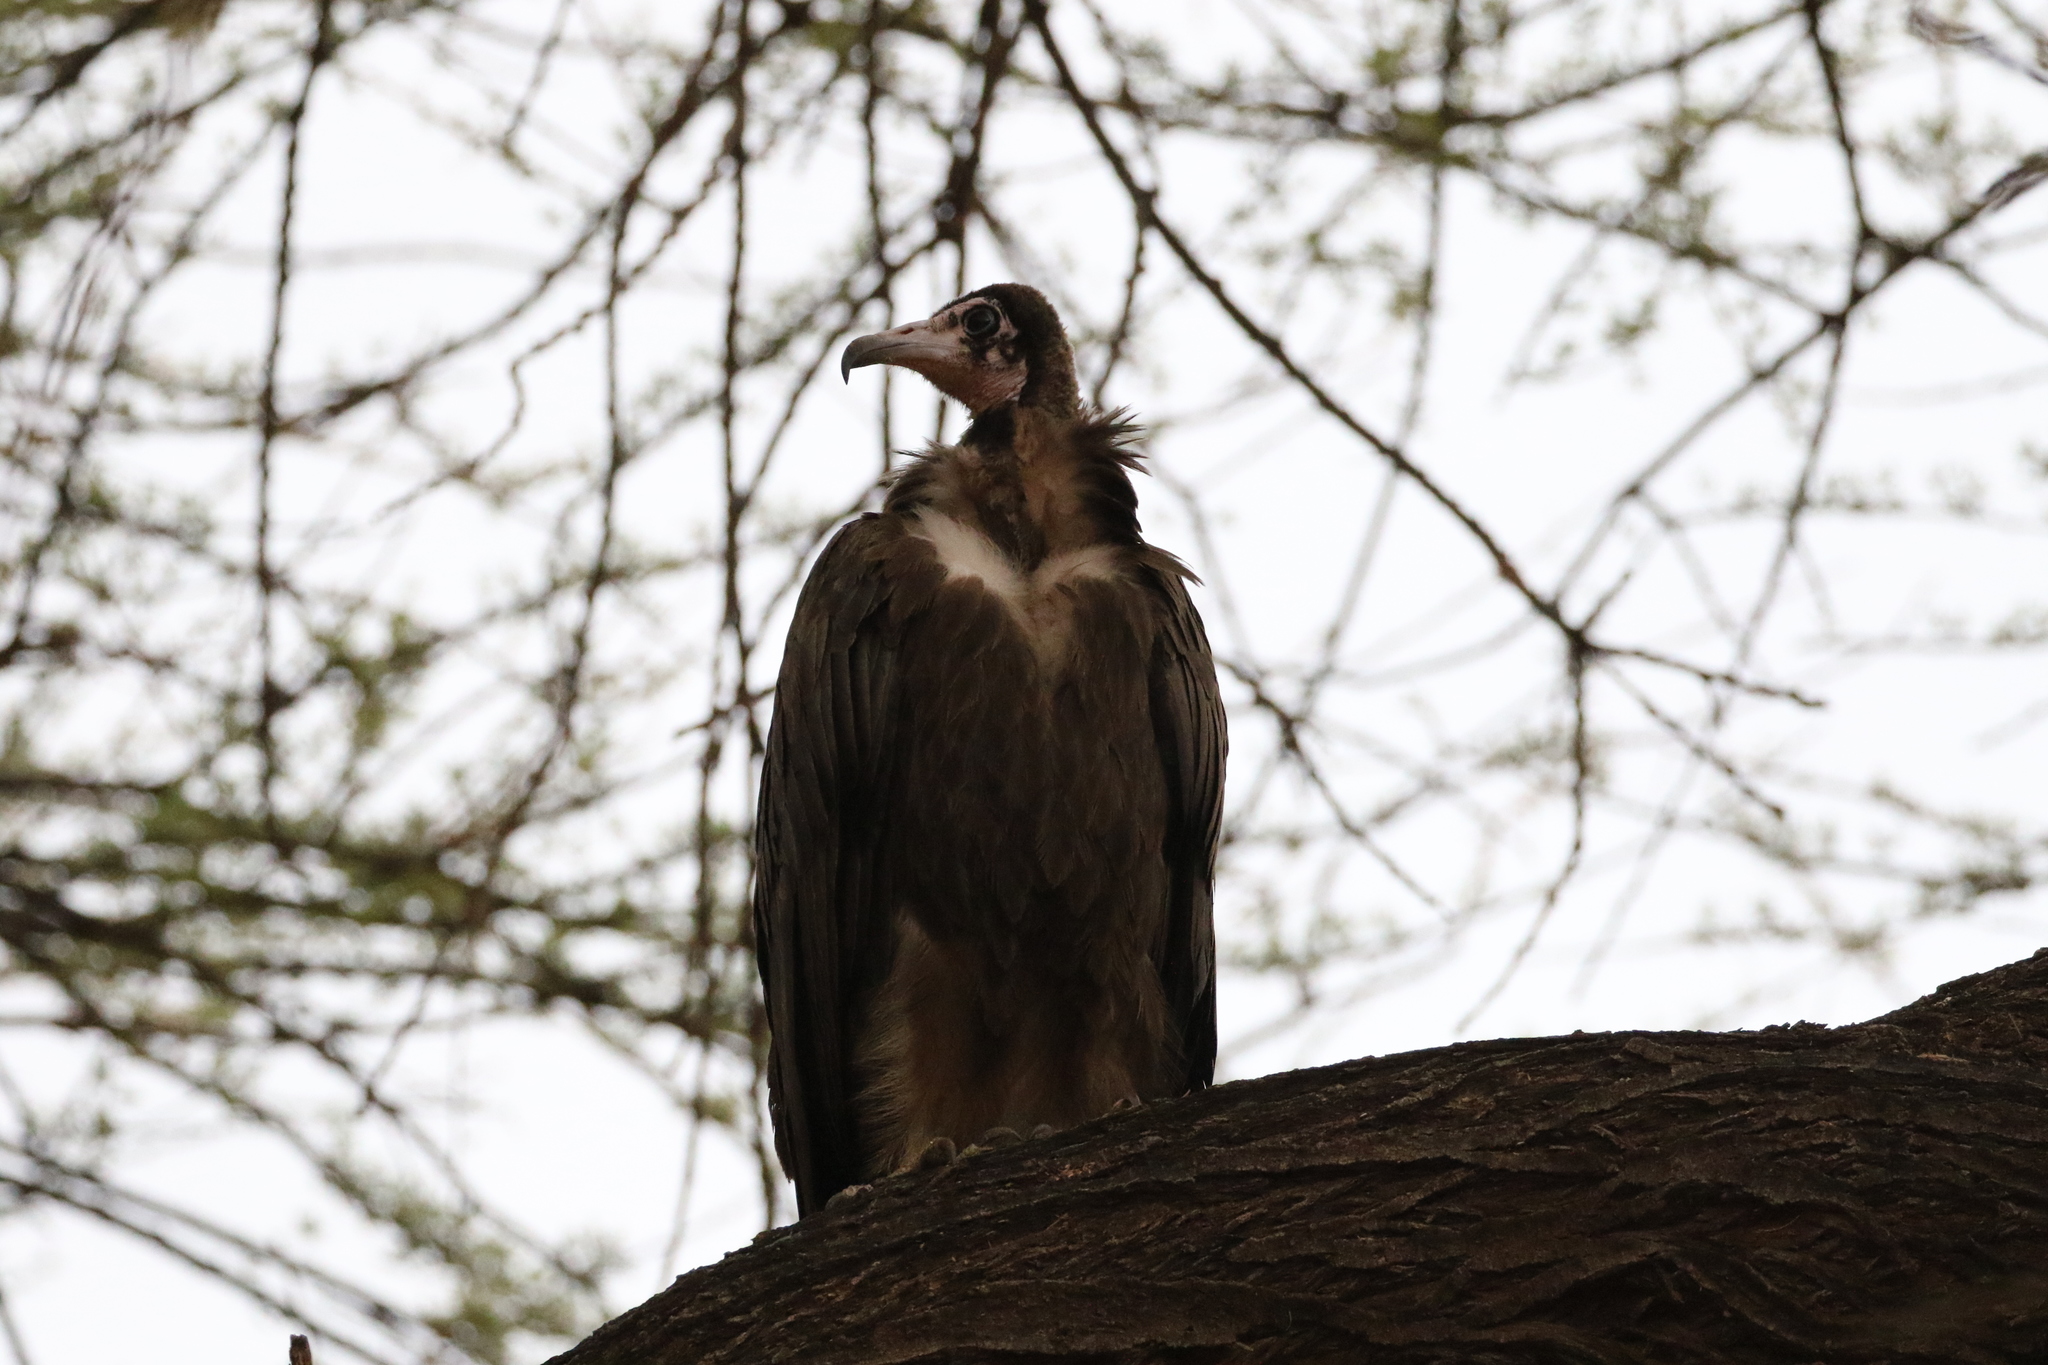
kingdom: Animalia
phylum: Chordata
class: Aves
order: Accipitriformes
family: Accipitridae
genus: Necrosyrtes
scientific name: Necrosyrtes monachus
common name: Hooded vulture
